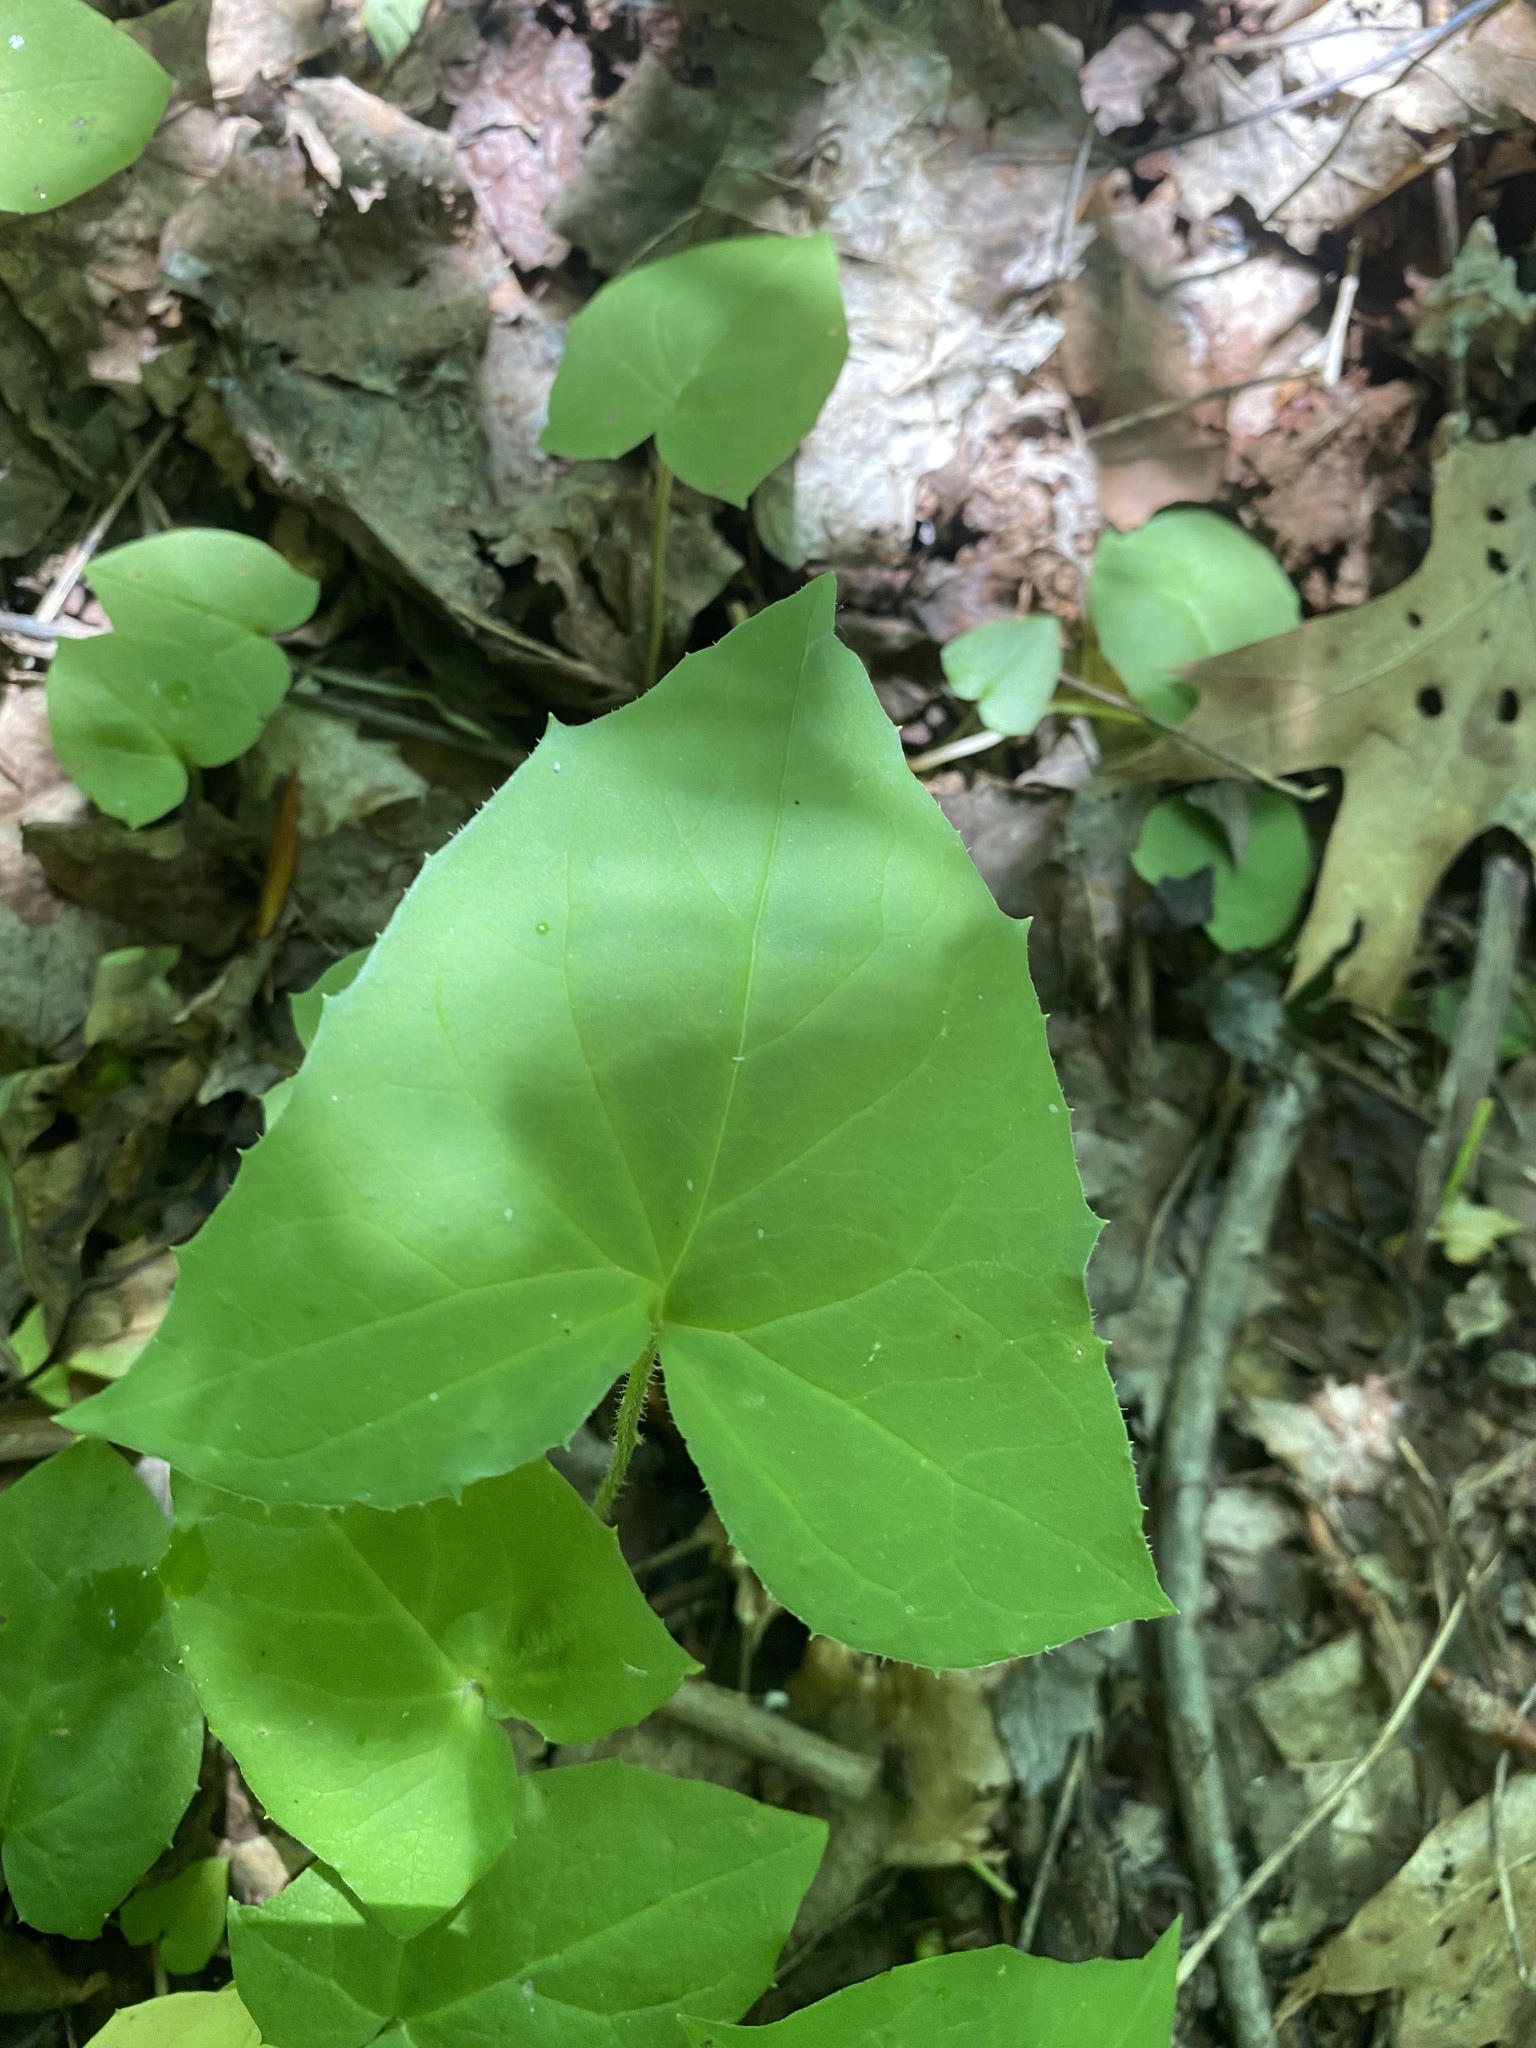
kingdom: Plantae
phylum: Tracheophyta
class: Magnoliopsida
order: Asterales
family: Asteraceae
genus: Nabalus
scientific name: Nabalus altissima
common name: Tall rattlesnakeroot
